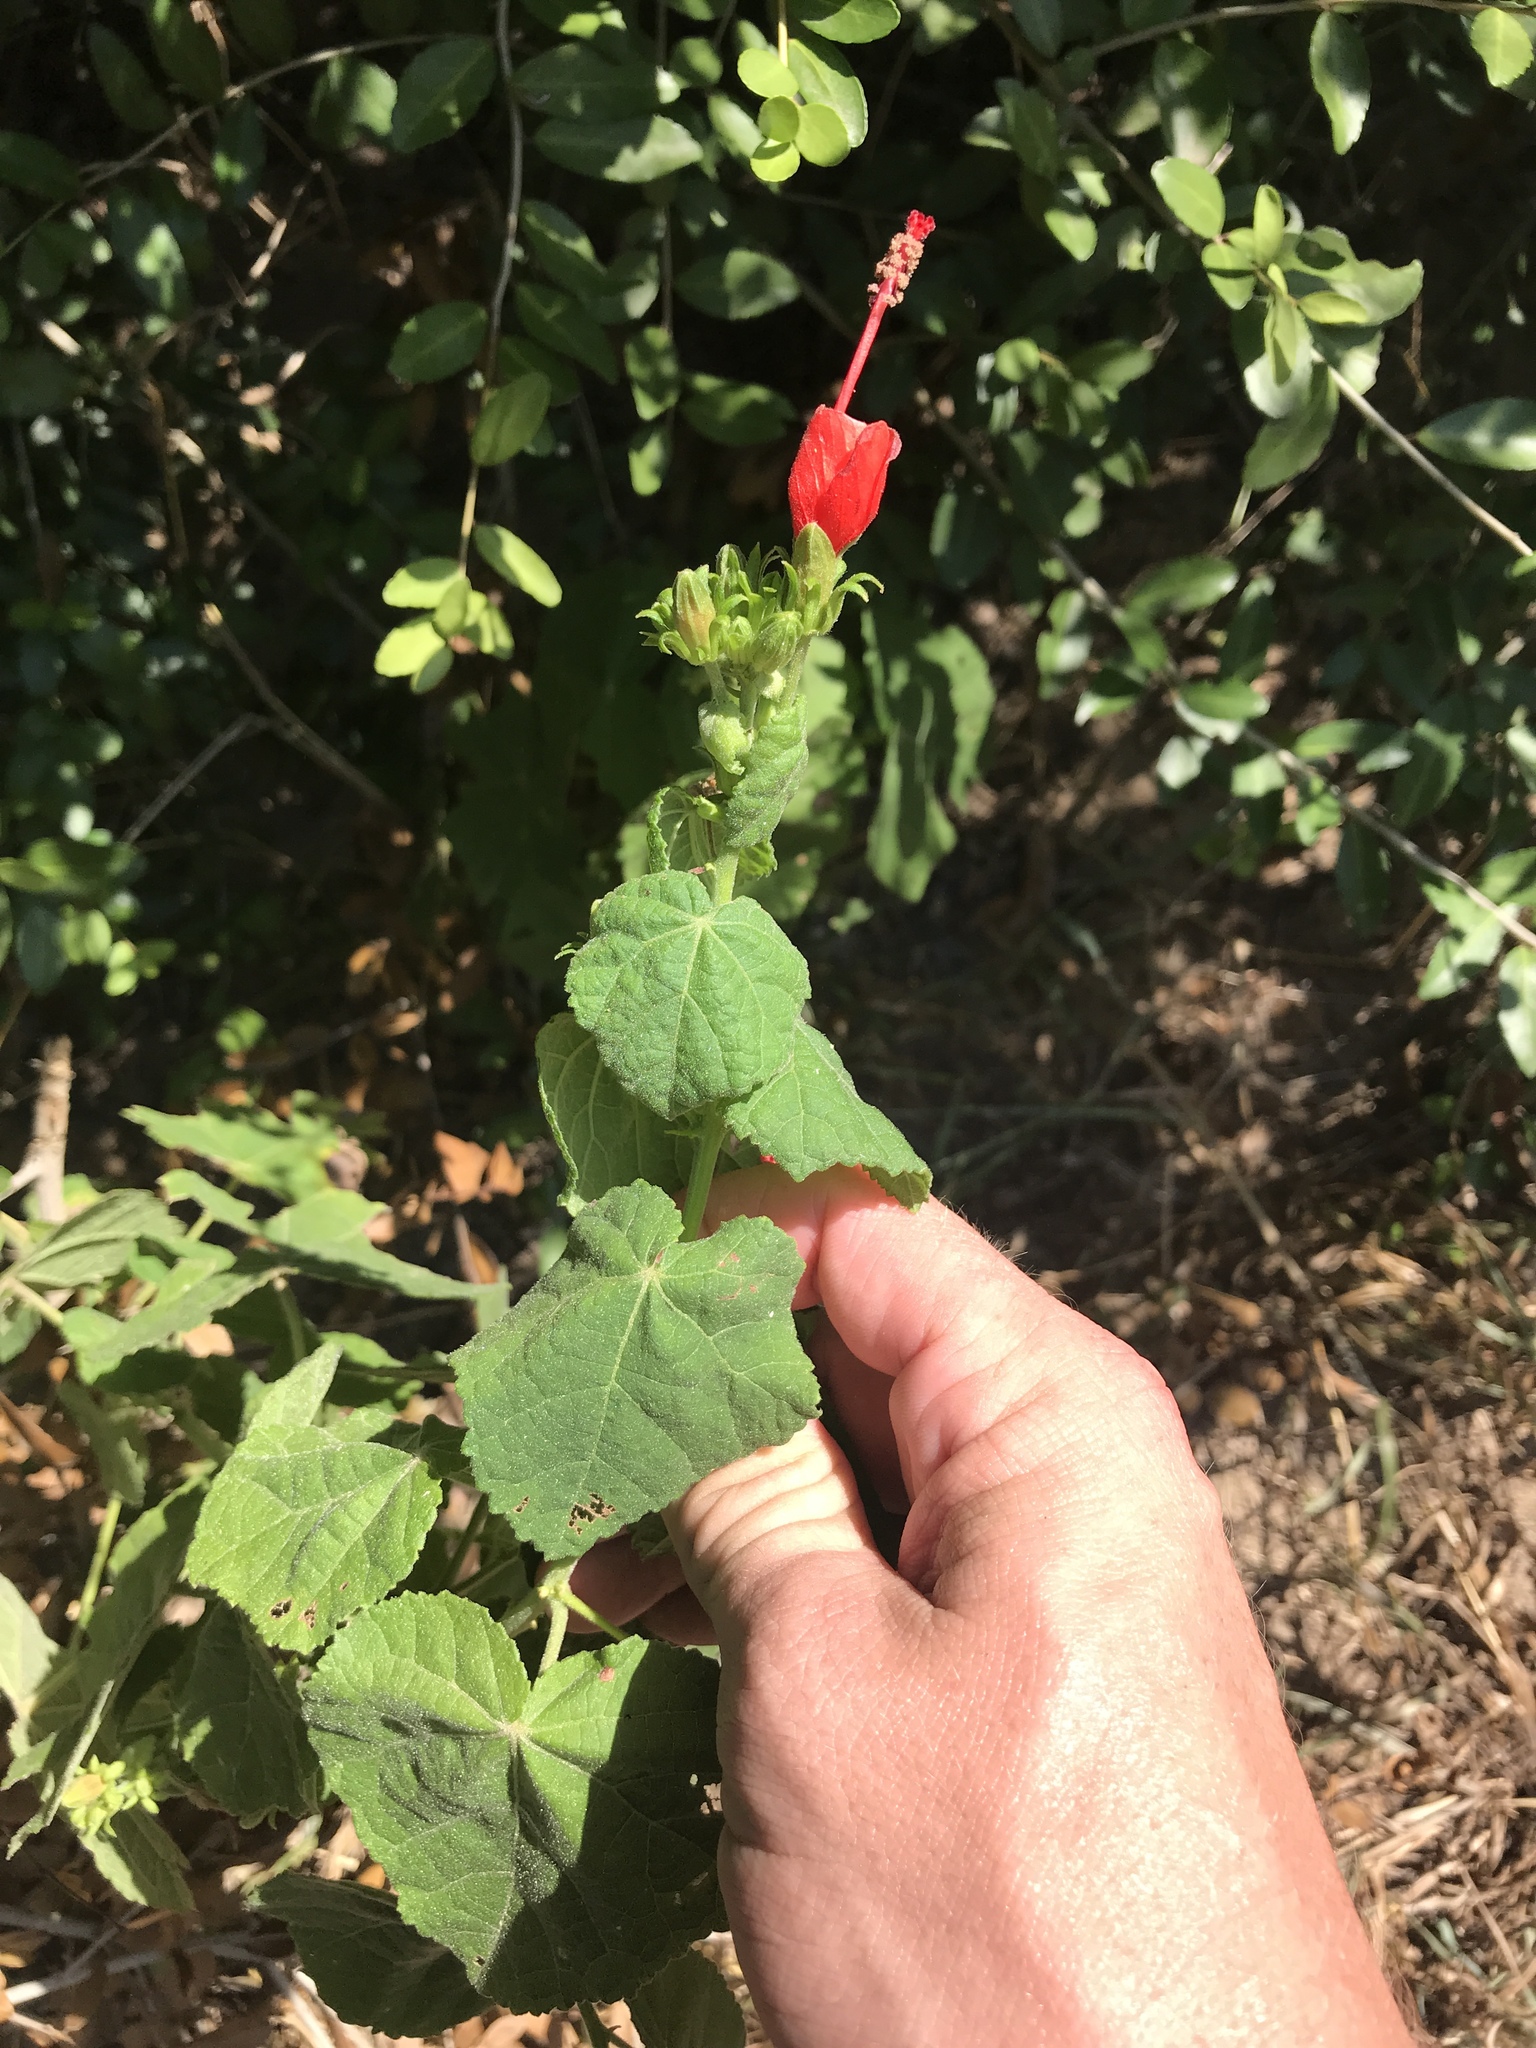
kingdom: Plantae
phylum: Tracheophyta
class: Magnoliopsida
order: Malvales
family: Malvaceae
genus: Malvaviscus
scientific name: Malvaviscus arboreus
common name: Wax mallow
